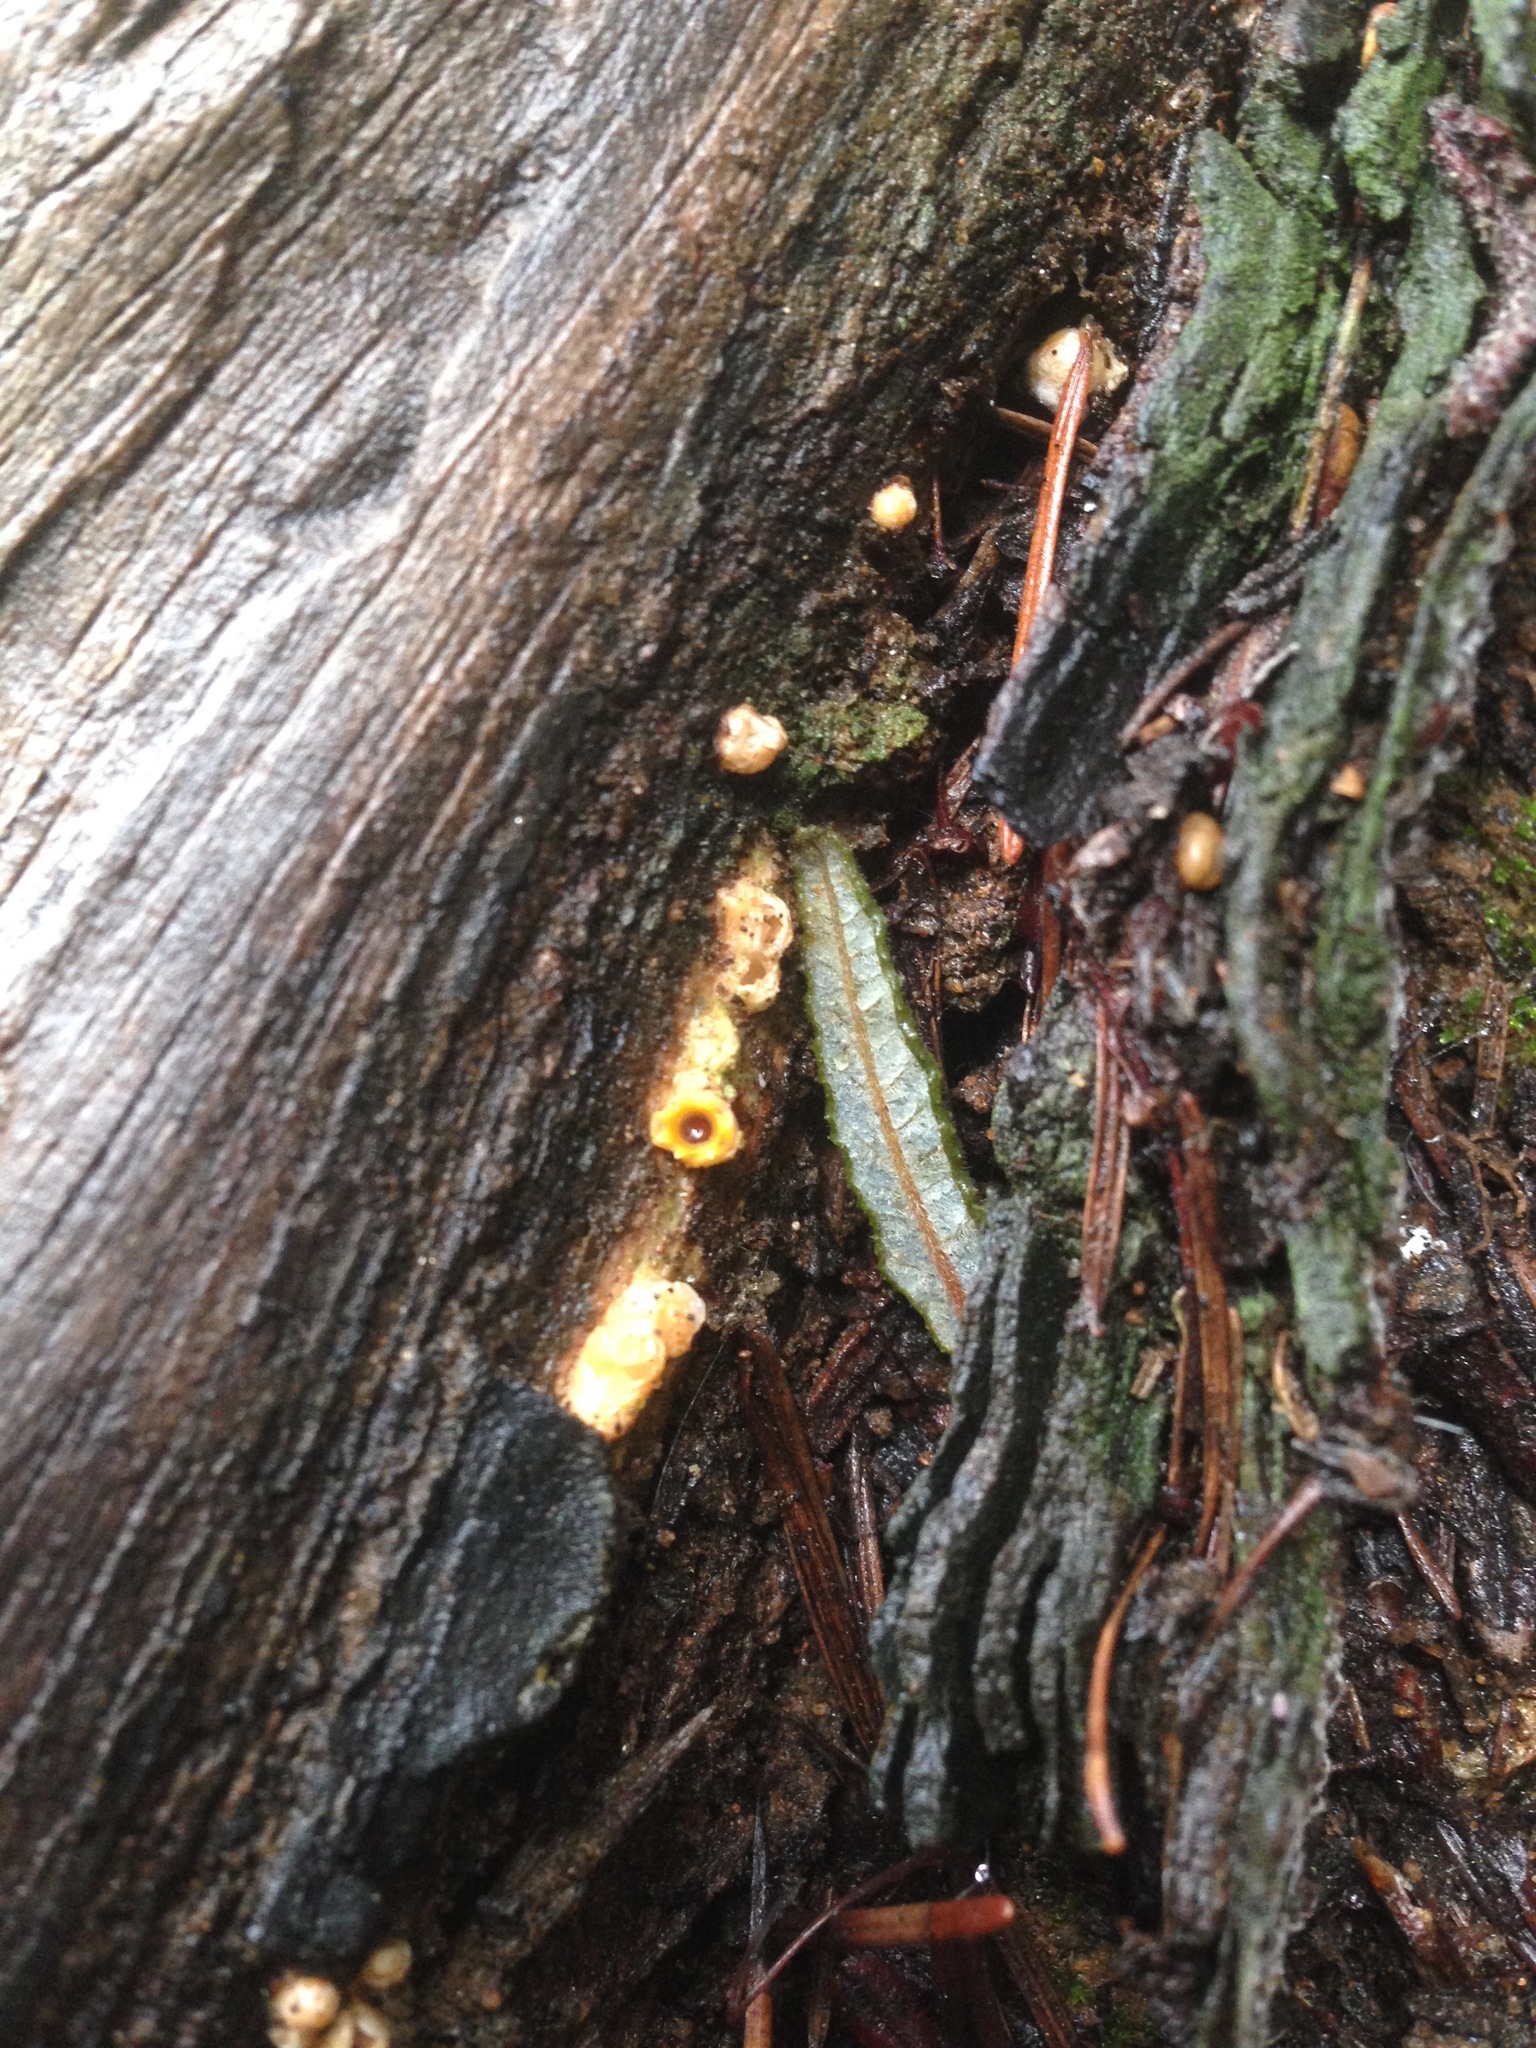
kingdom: Fungi
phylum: Basidiomycota
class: Agaricomycetes
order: Geastrales
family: Geastraceae
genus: Sphaerobolus
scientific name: Sphaerobolus stellatus
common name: Cannon fungus
